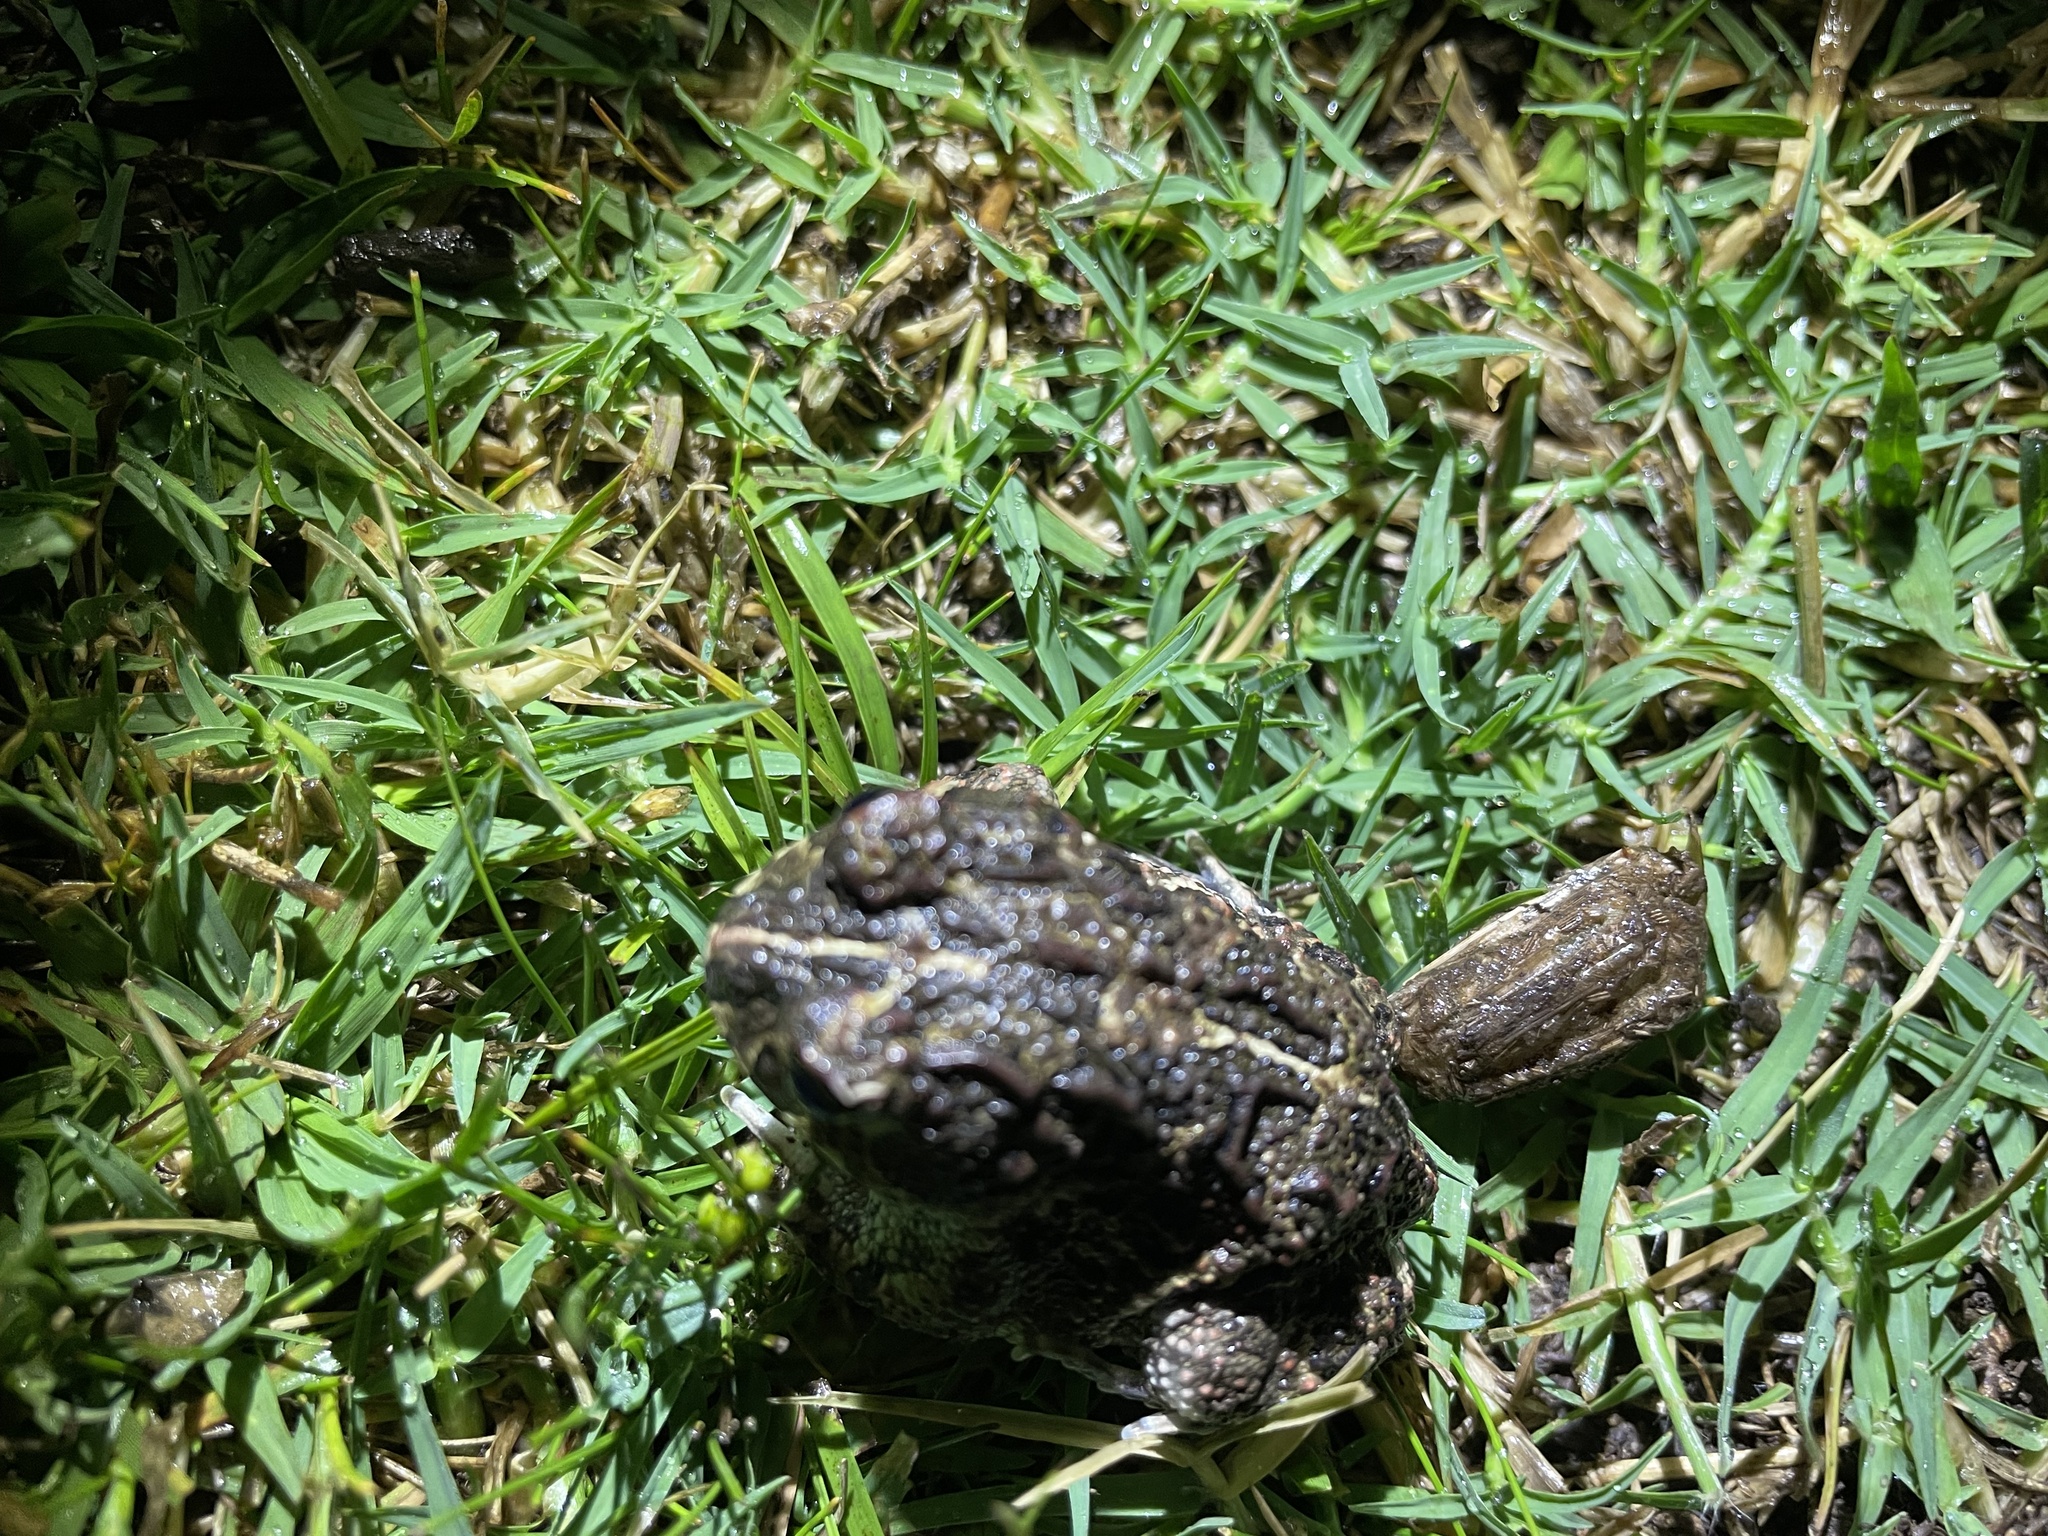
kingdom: Animalia
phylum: Chordata
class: Amphibia
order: Anura
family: Odontophrynidae
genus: Odontophrynus
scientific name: Odontophrynus
